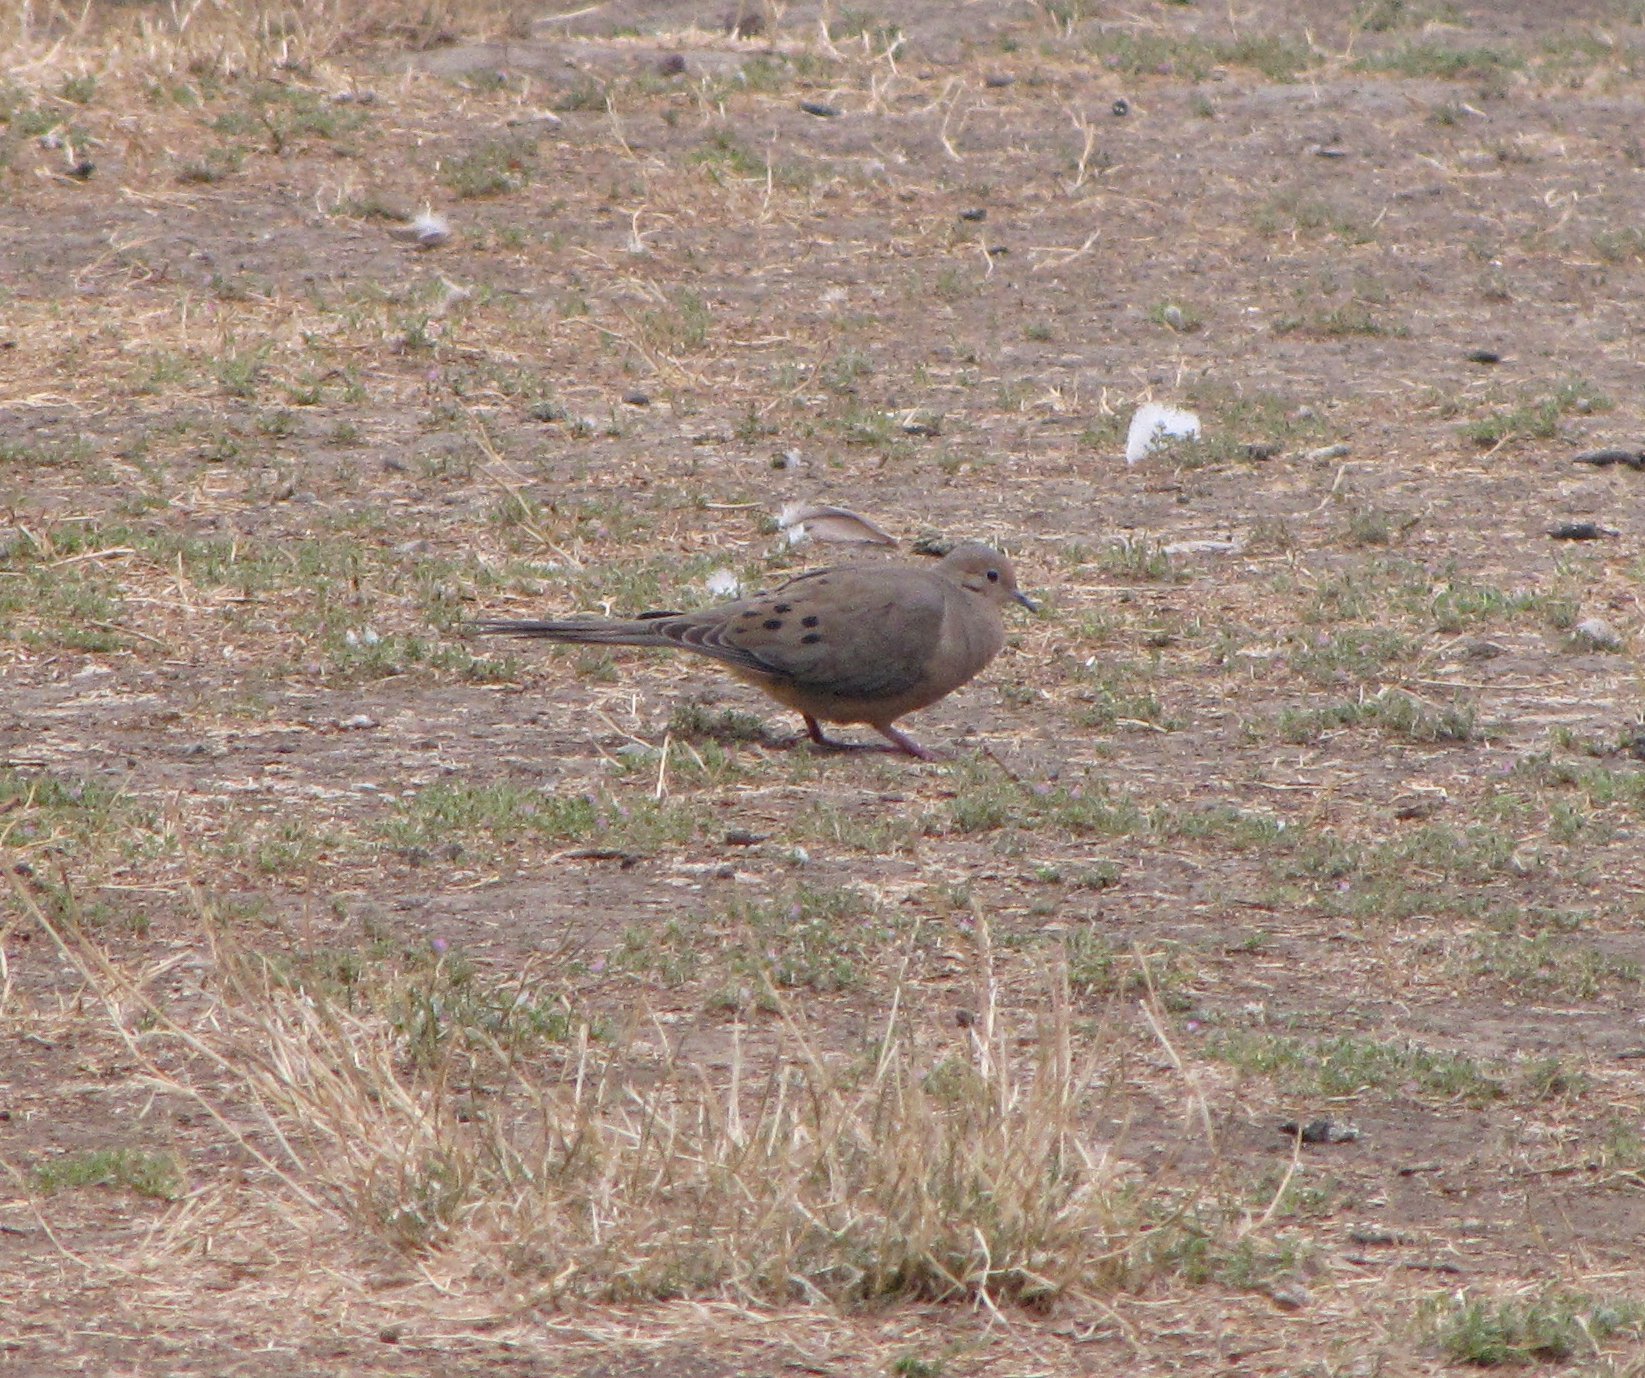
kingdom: Animalia
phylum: Chordata
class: Aves
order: Columbiformes
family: Columbidae
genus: Zenaida
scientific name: Zenaida macroura
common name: Mourning dove
